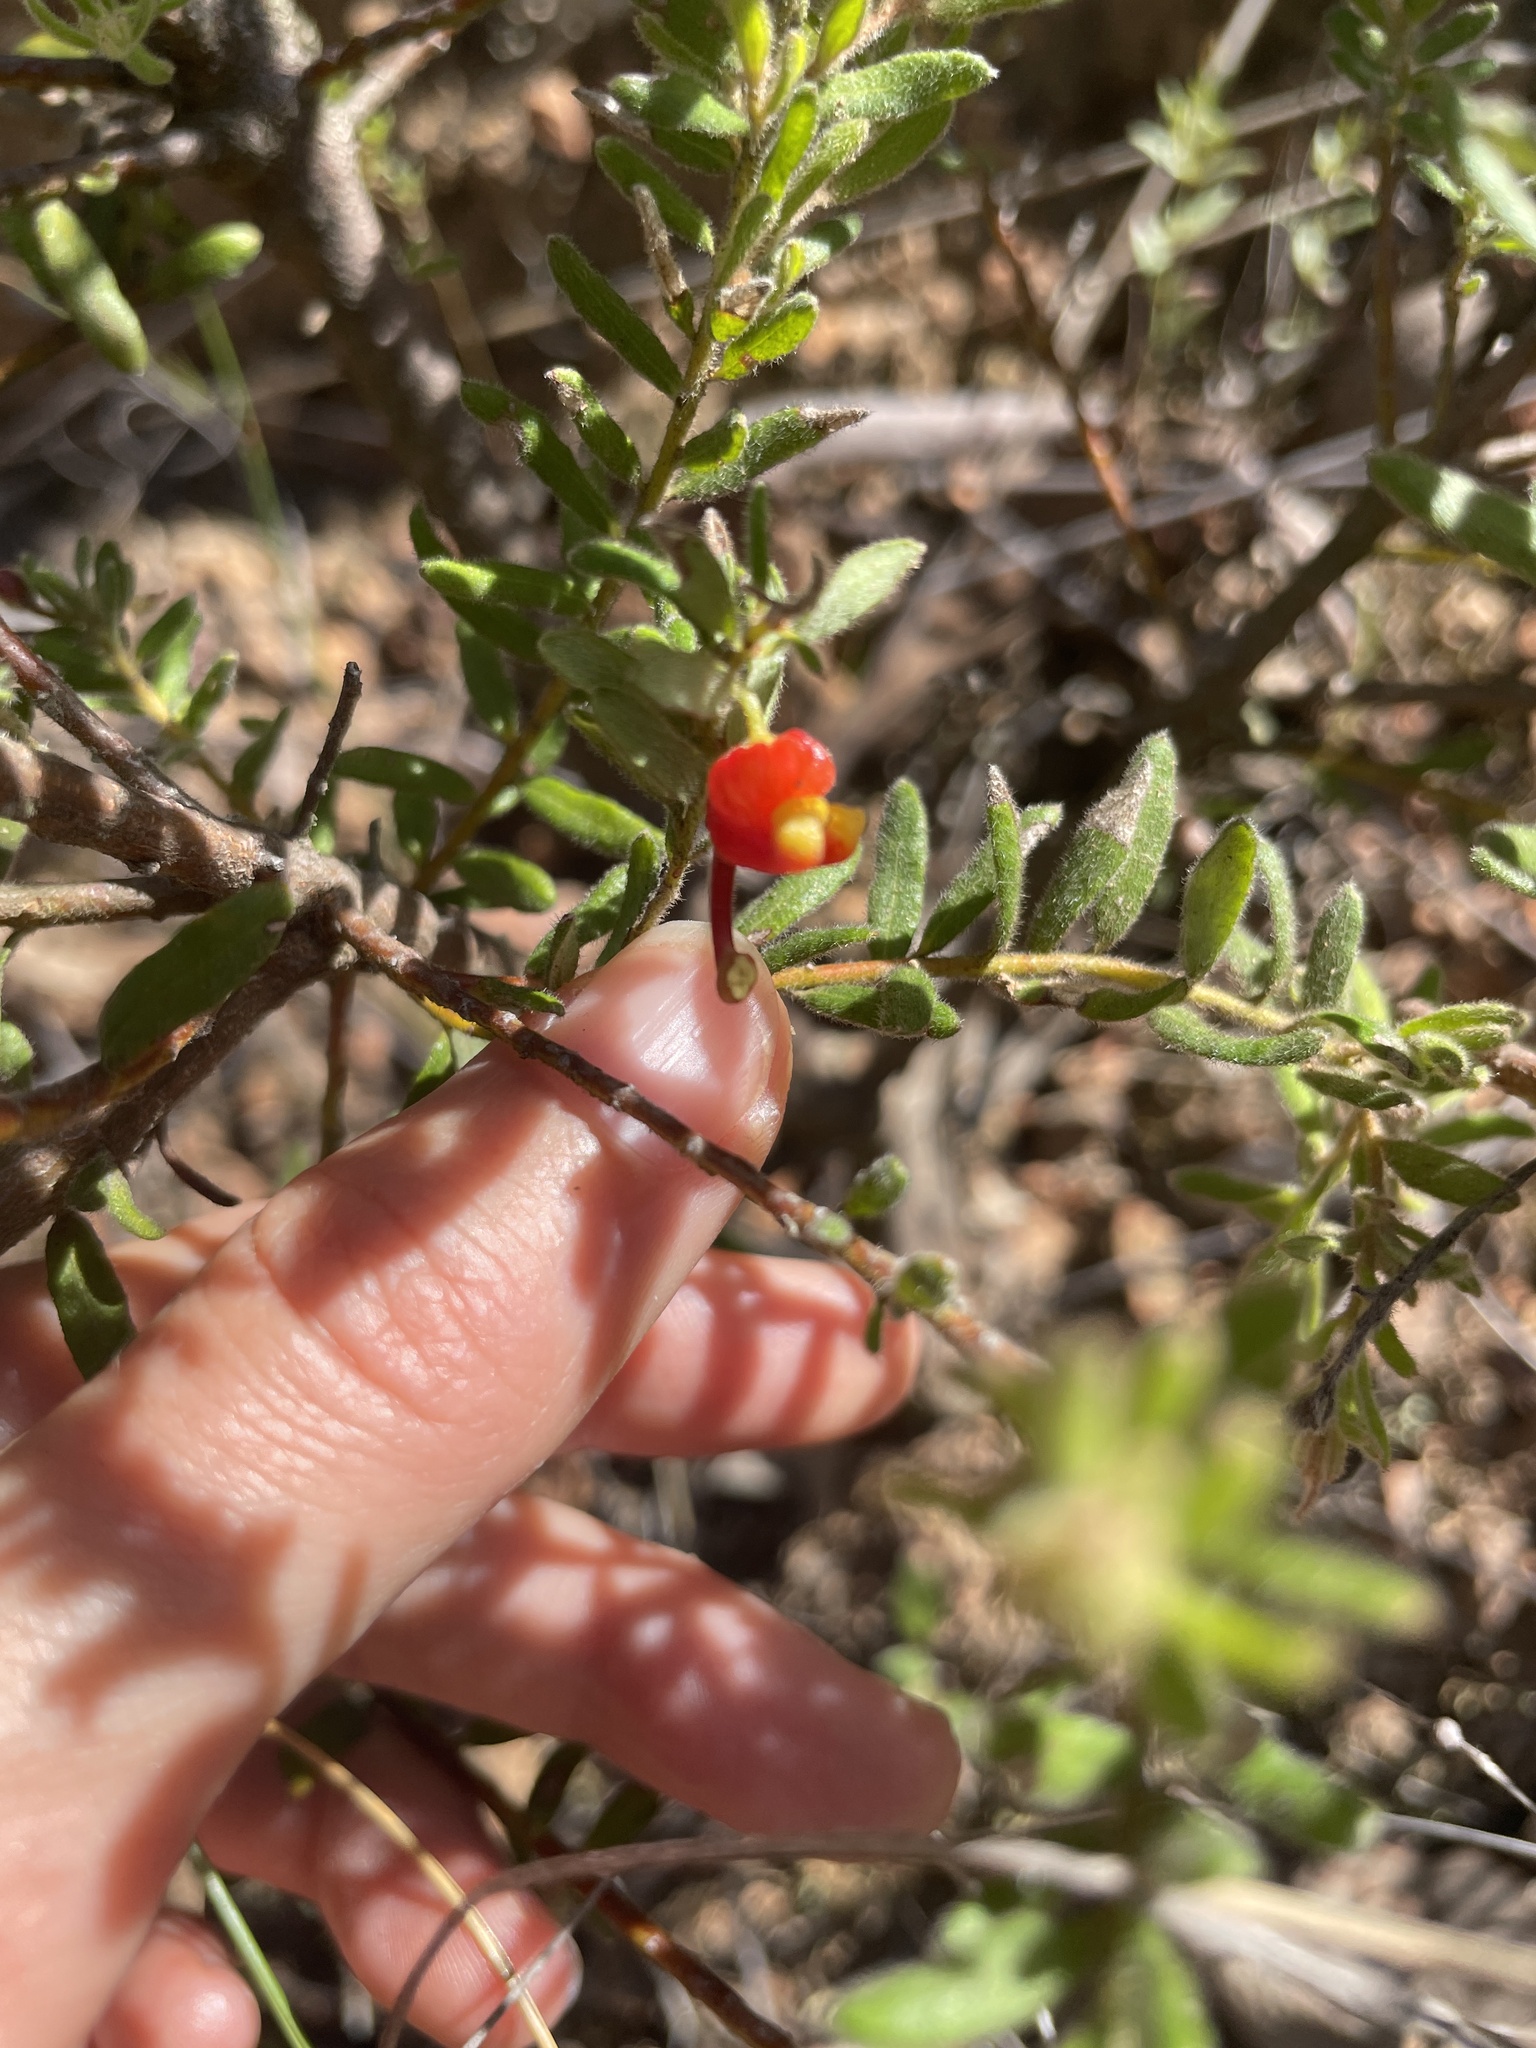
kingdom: Plantae
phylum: Tracheophyta
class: Magnoliopsida
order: Proteales
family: Proteaceae
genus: Grevillea
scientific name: Grevillea alpina
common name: Catclaws grevillea
